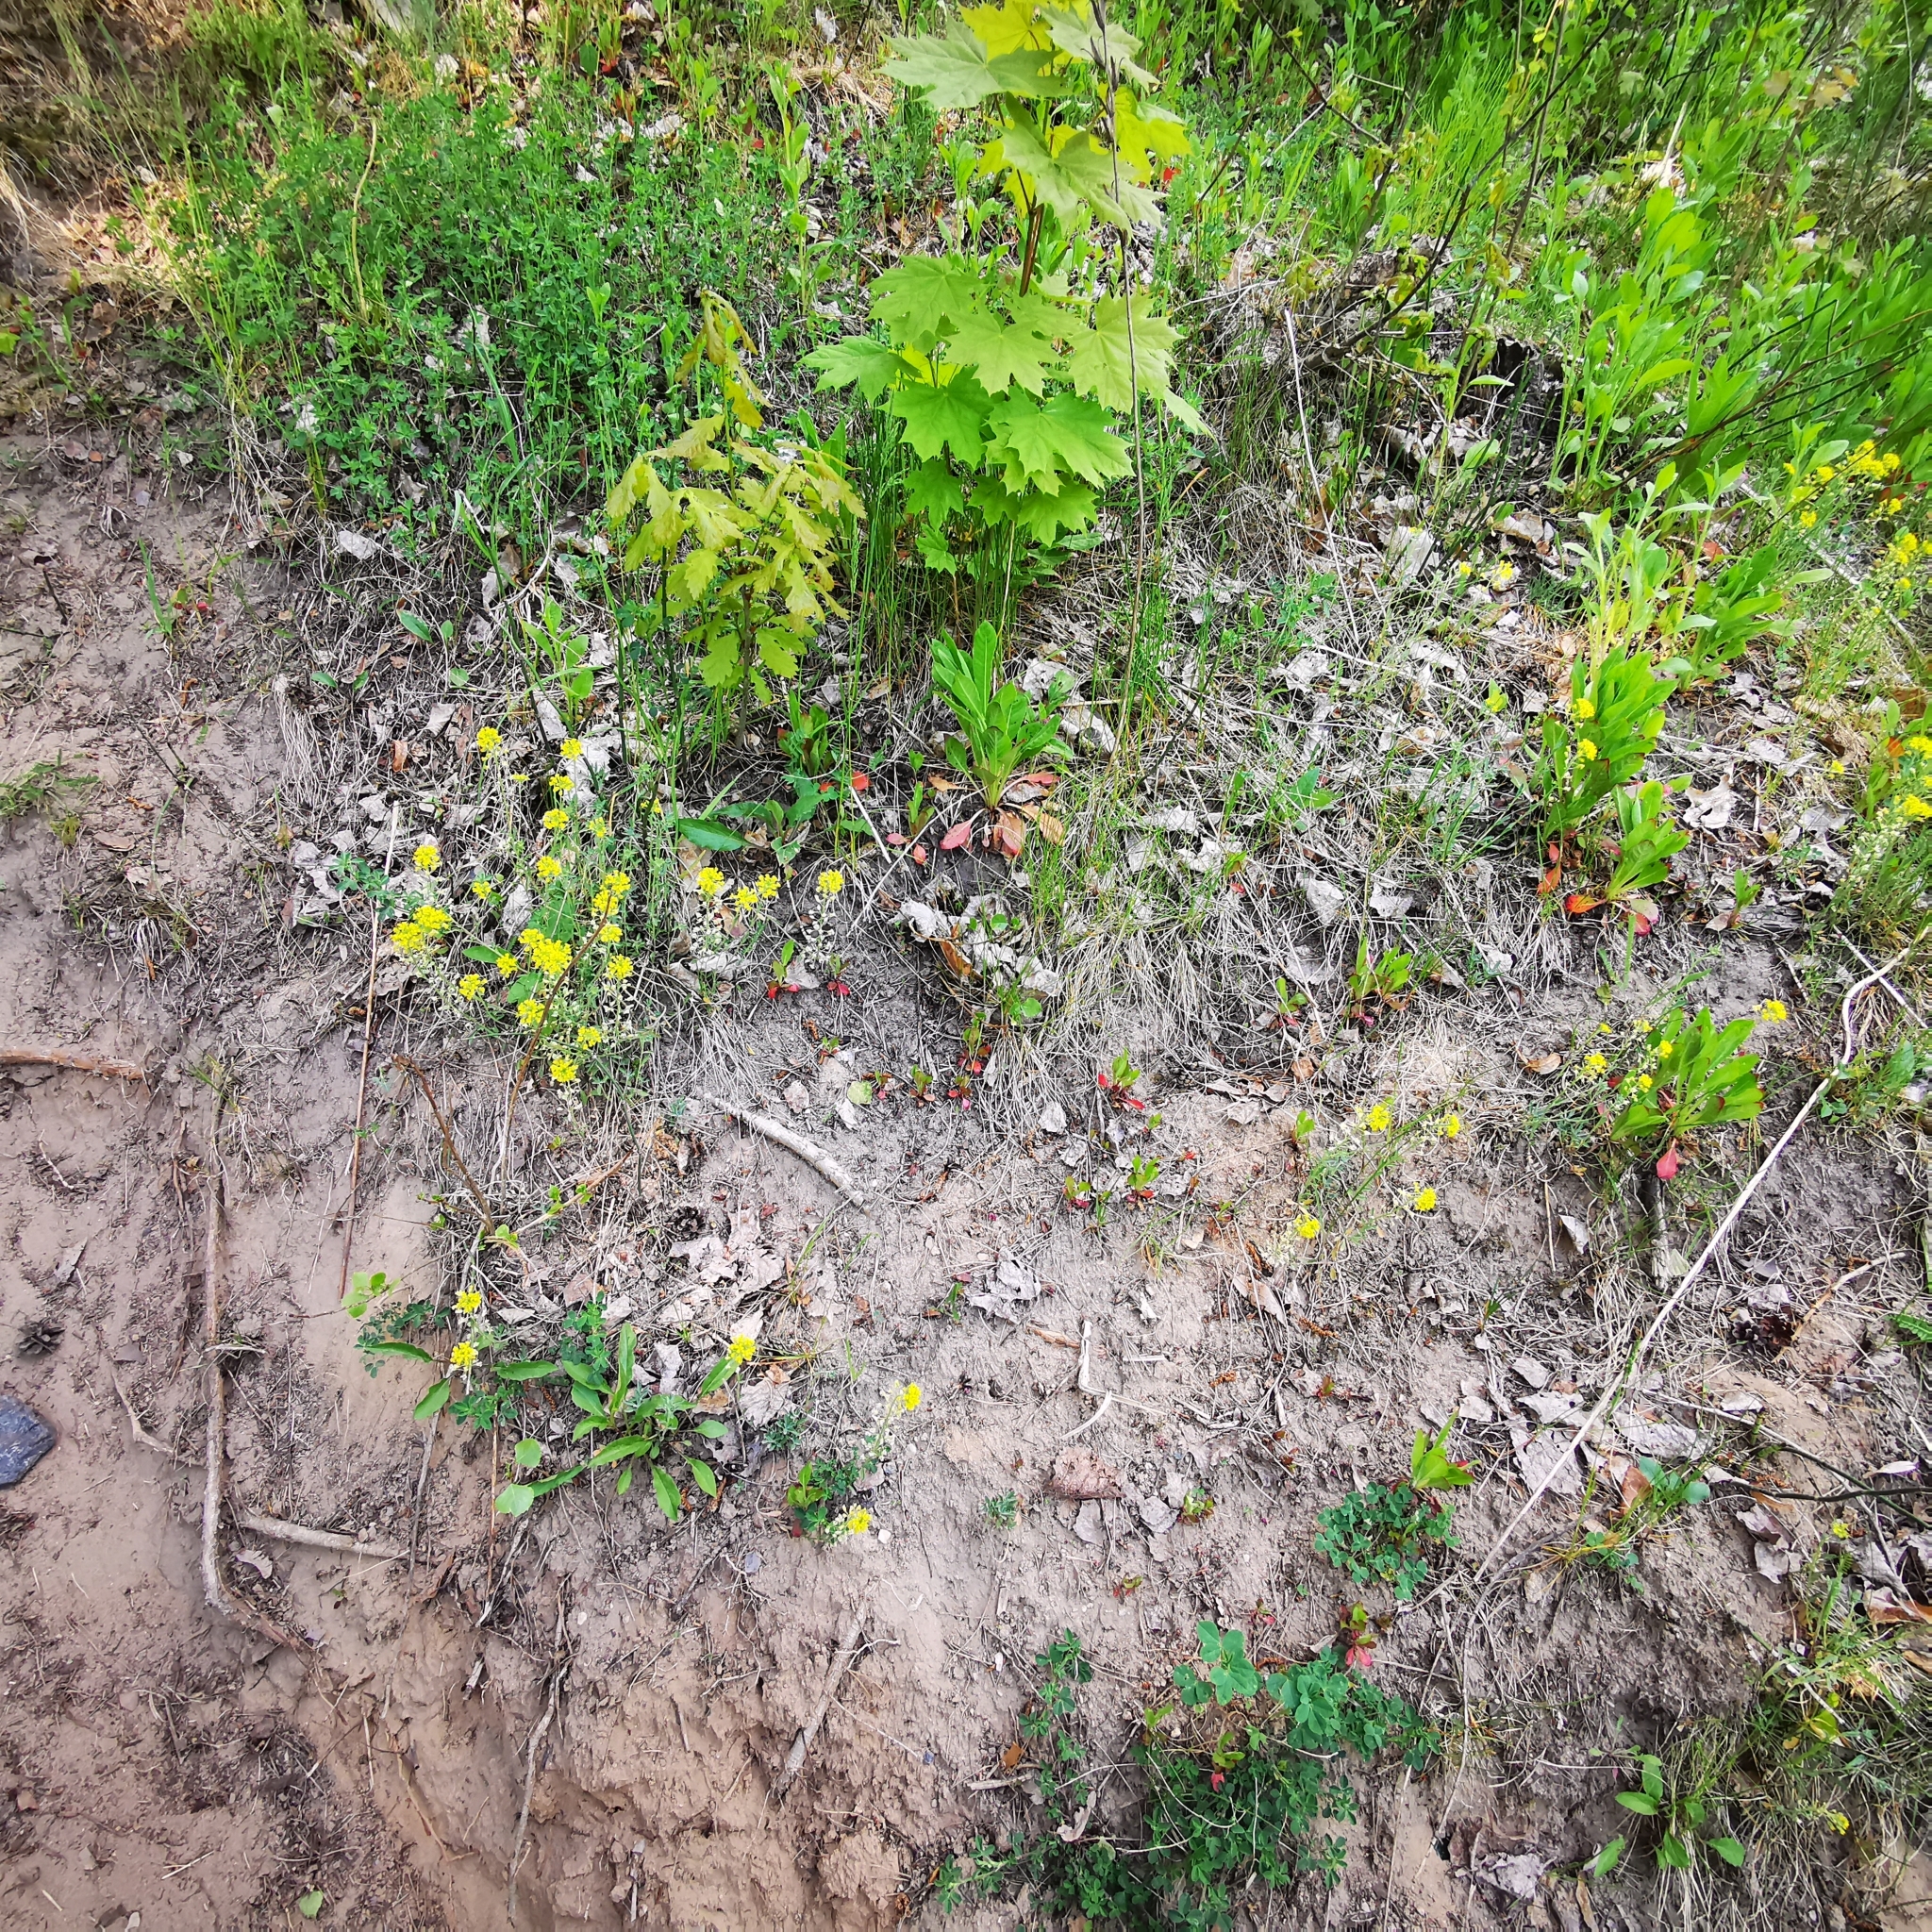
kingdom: Plantae
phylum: Tracheophyta
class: Magnoliopsida
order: Brassicales
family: Brassicaceae
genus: Alyssum
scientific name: Alyssum gmelinii
